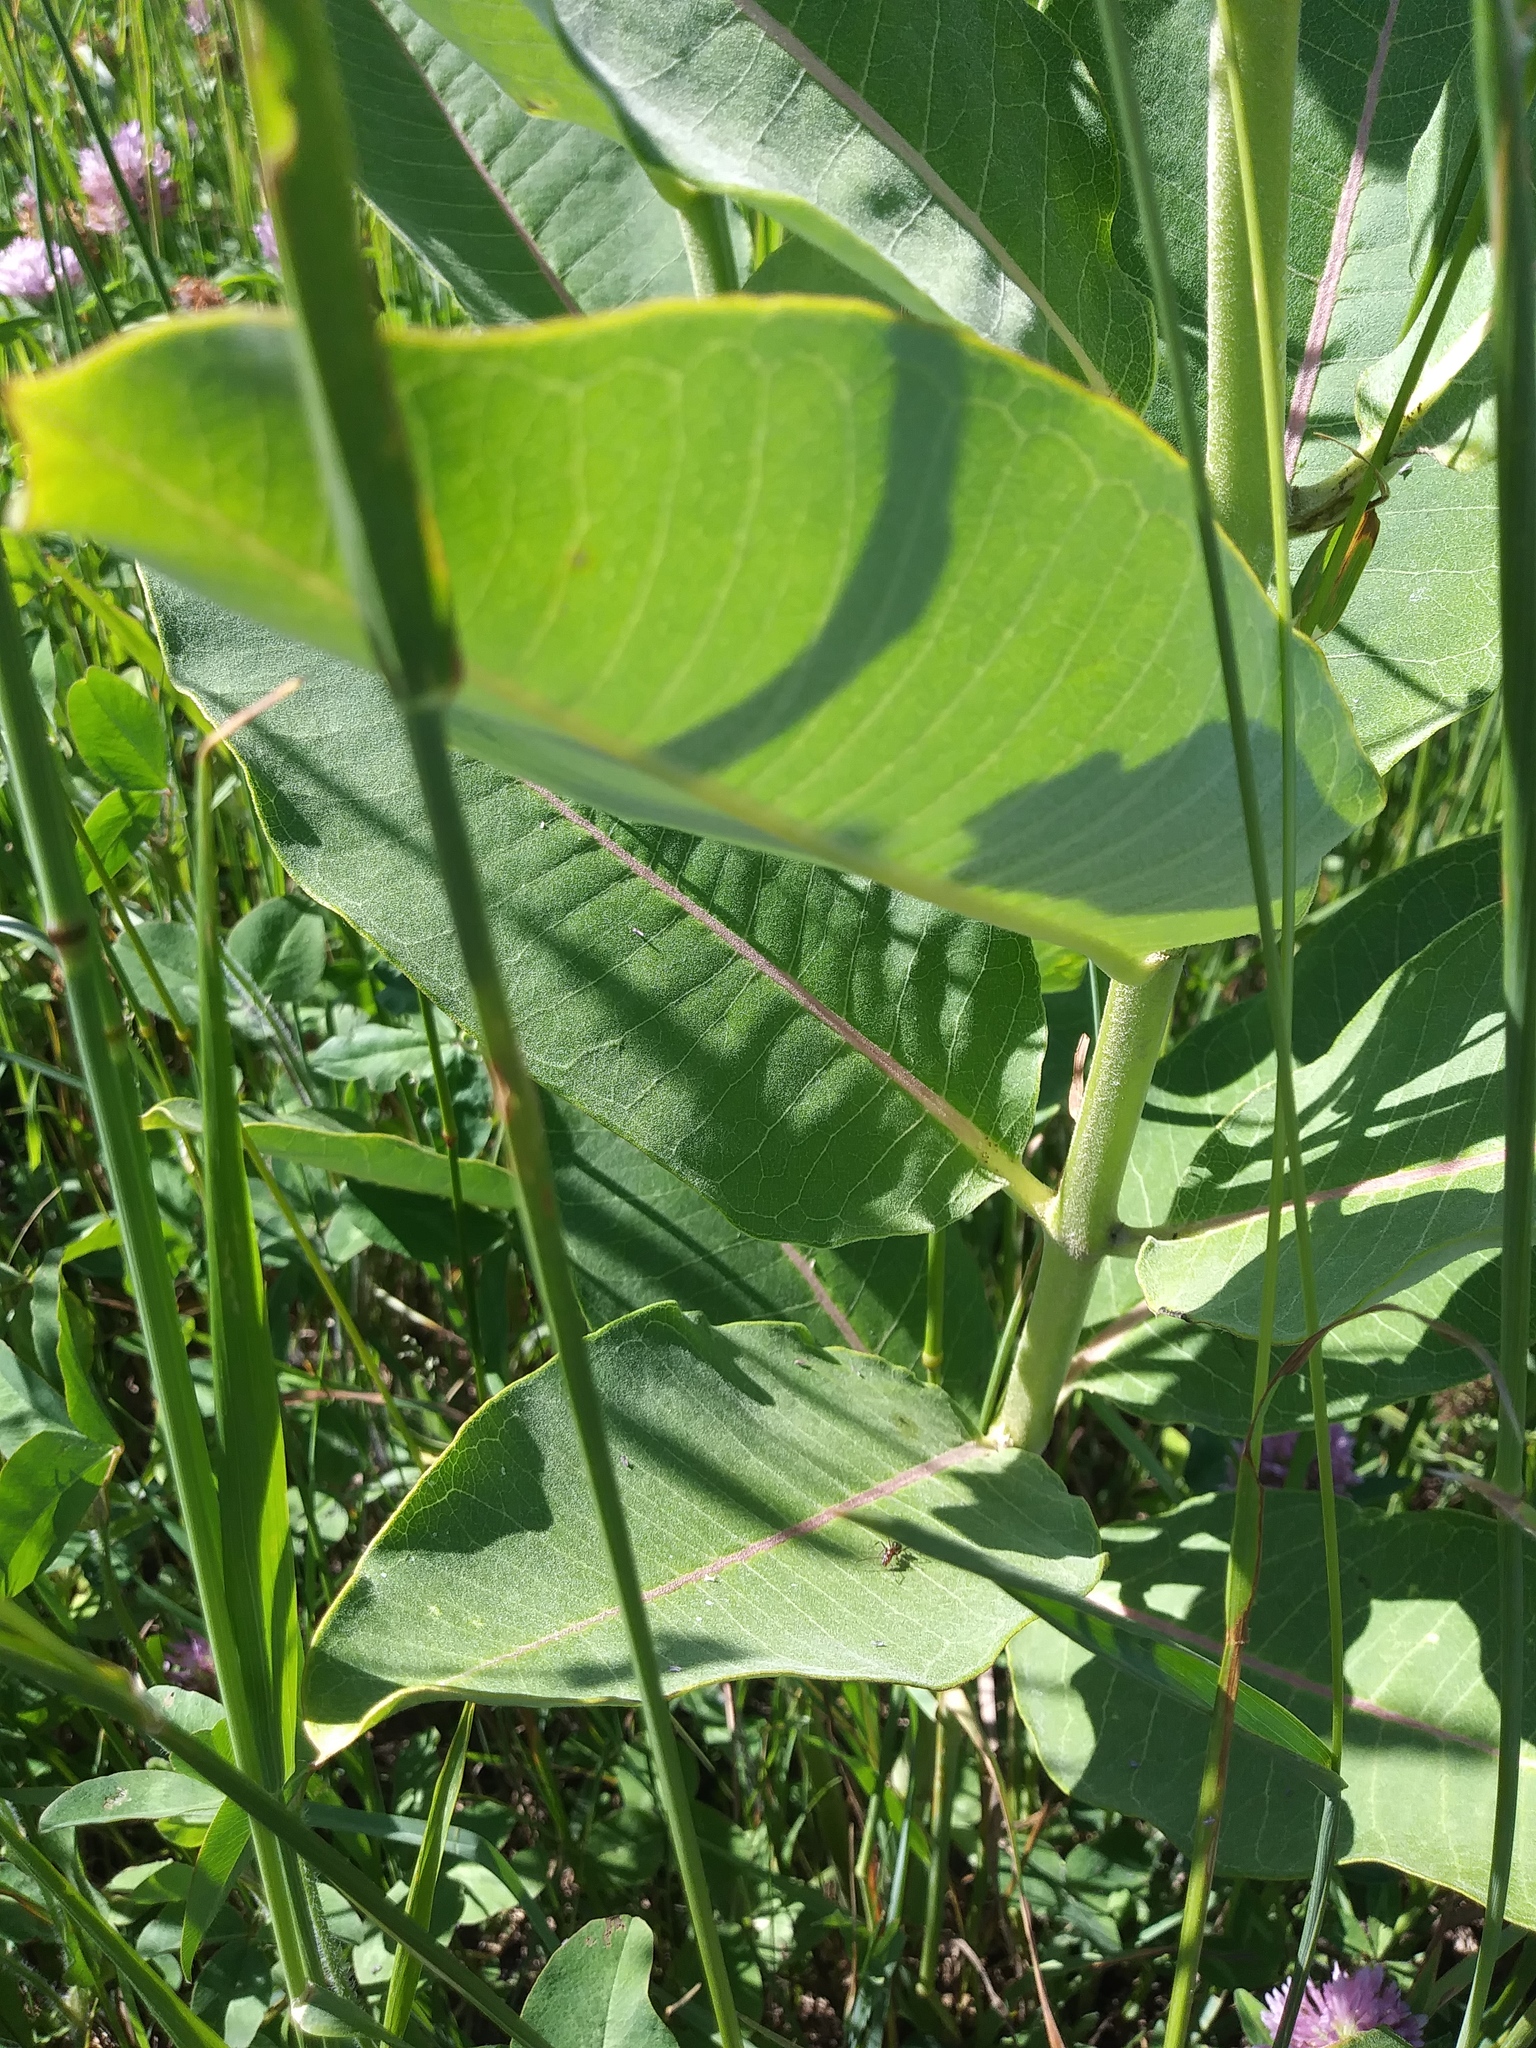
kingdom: Plantae
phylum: Tracheophyta
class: Magnoliopsida
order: Gentianales
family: Apocynaceae
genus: Asclepias
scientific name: Asclepias syriaca
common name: Common milkweed
